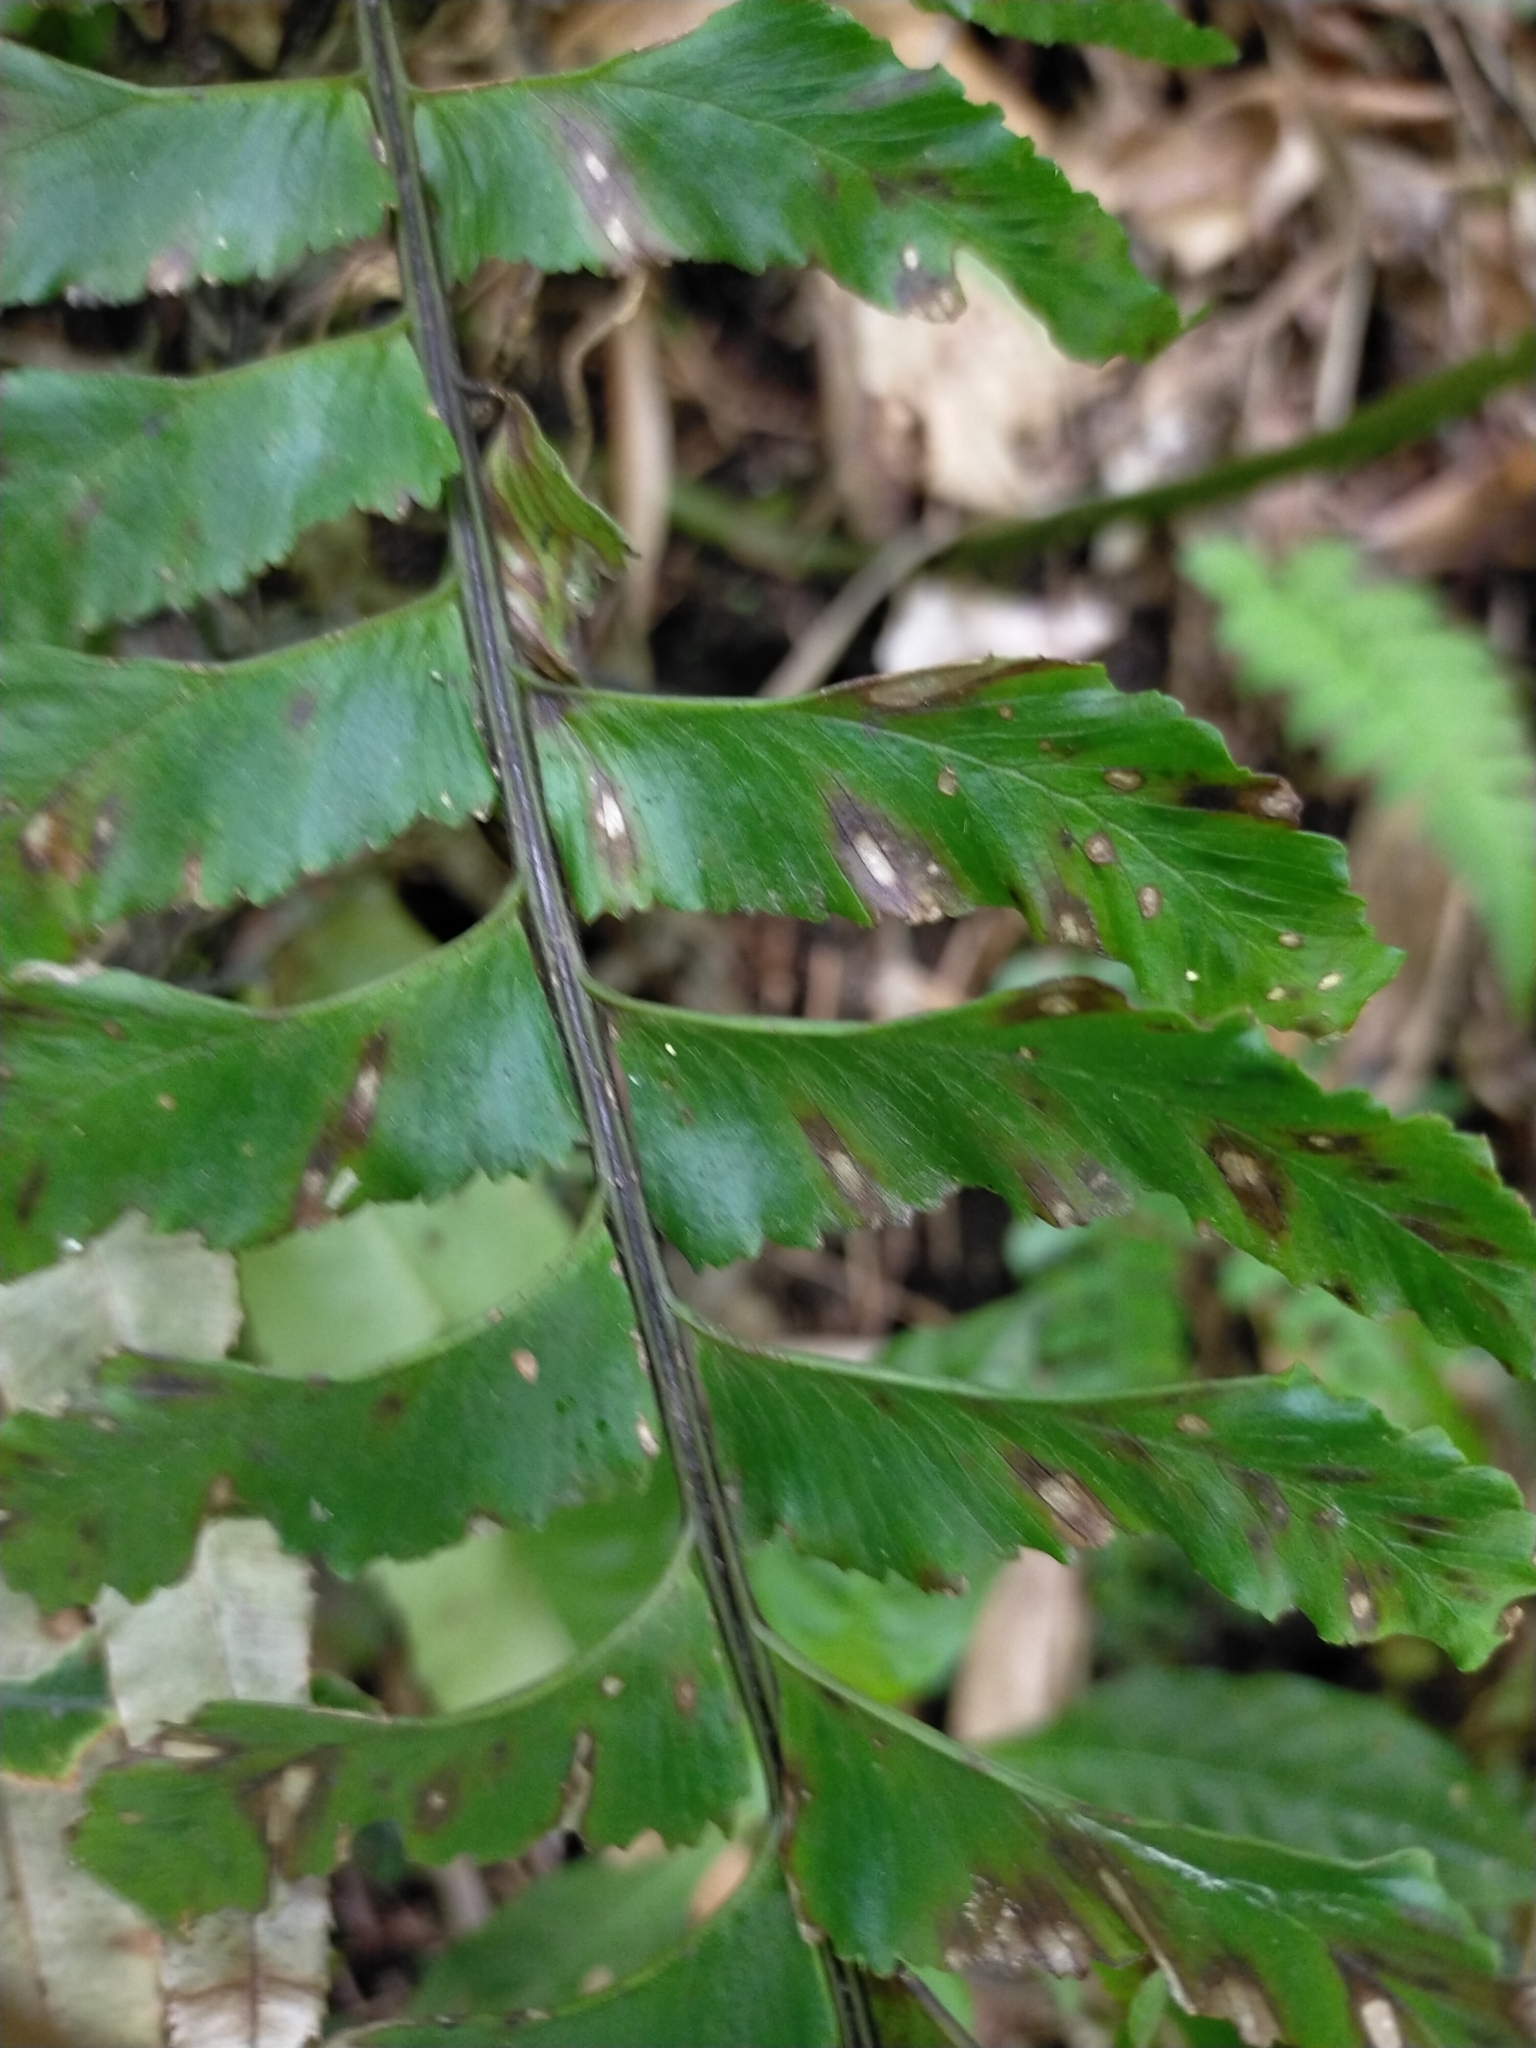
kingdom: Plantae
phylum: Tracheophyta
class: Polypodiopsida
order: Polypodiales
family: Aspleniaceae
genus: Hymenasplenium
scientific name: Hymenasplenium excisum
